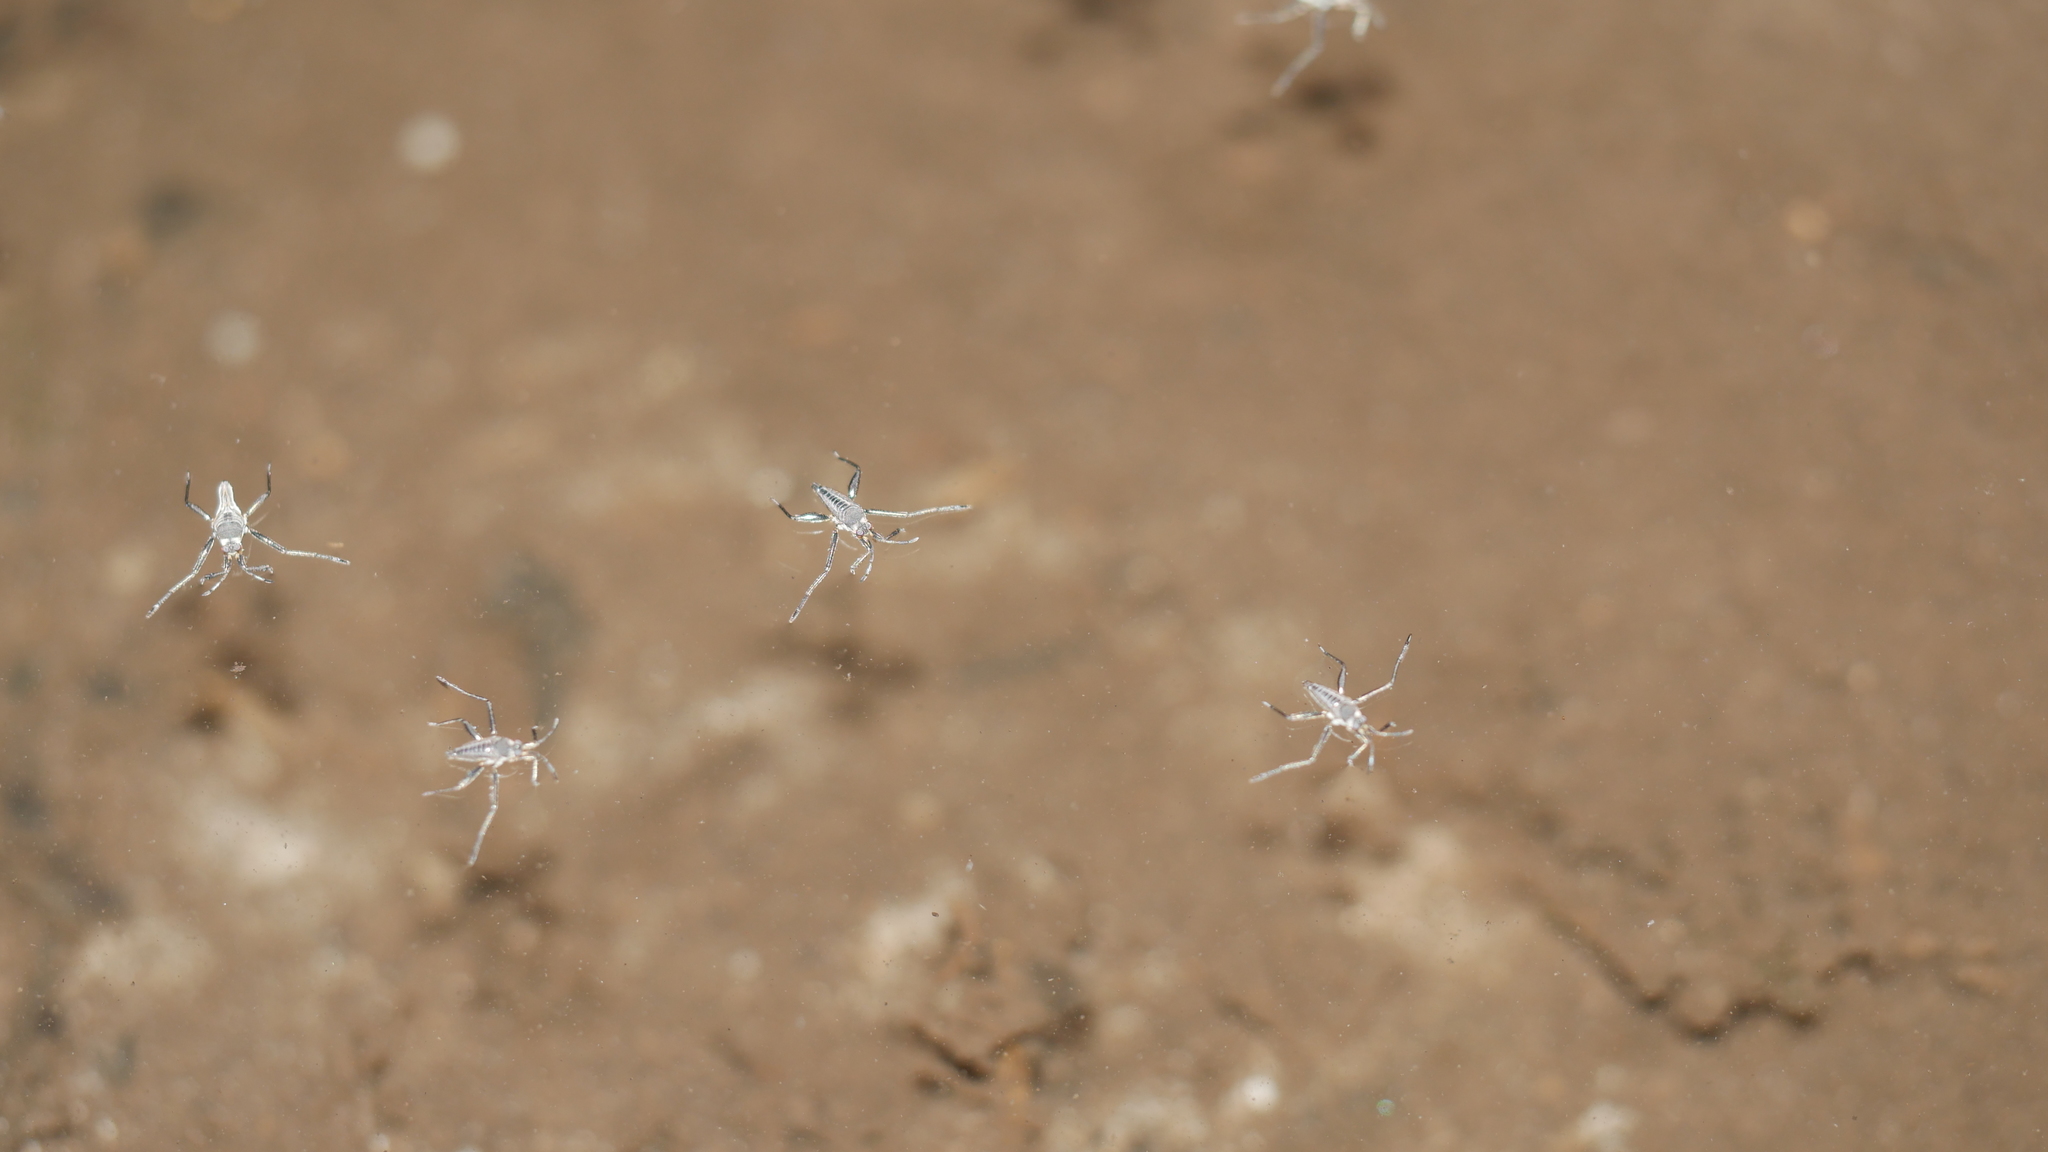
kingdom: Animalia
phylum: Arthropoda
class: Insecta
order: Hemiptera
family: Veliidae
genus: Rhagovelia
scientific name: Rhagovelia obesa
